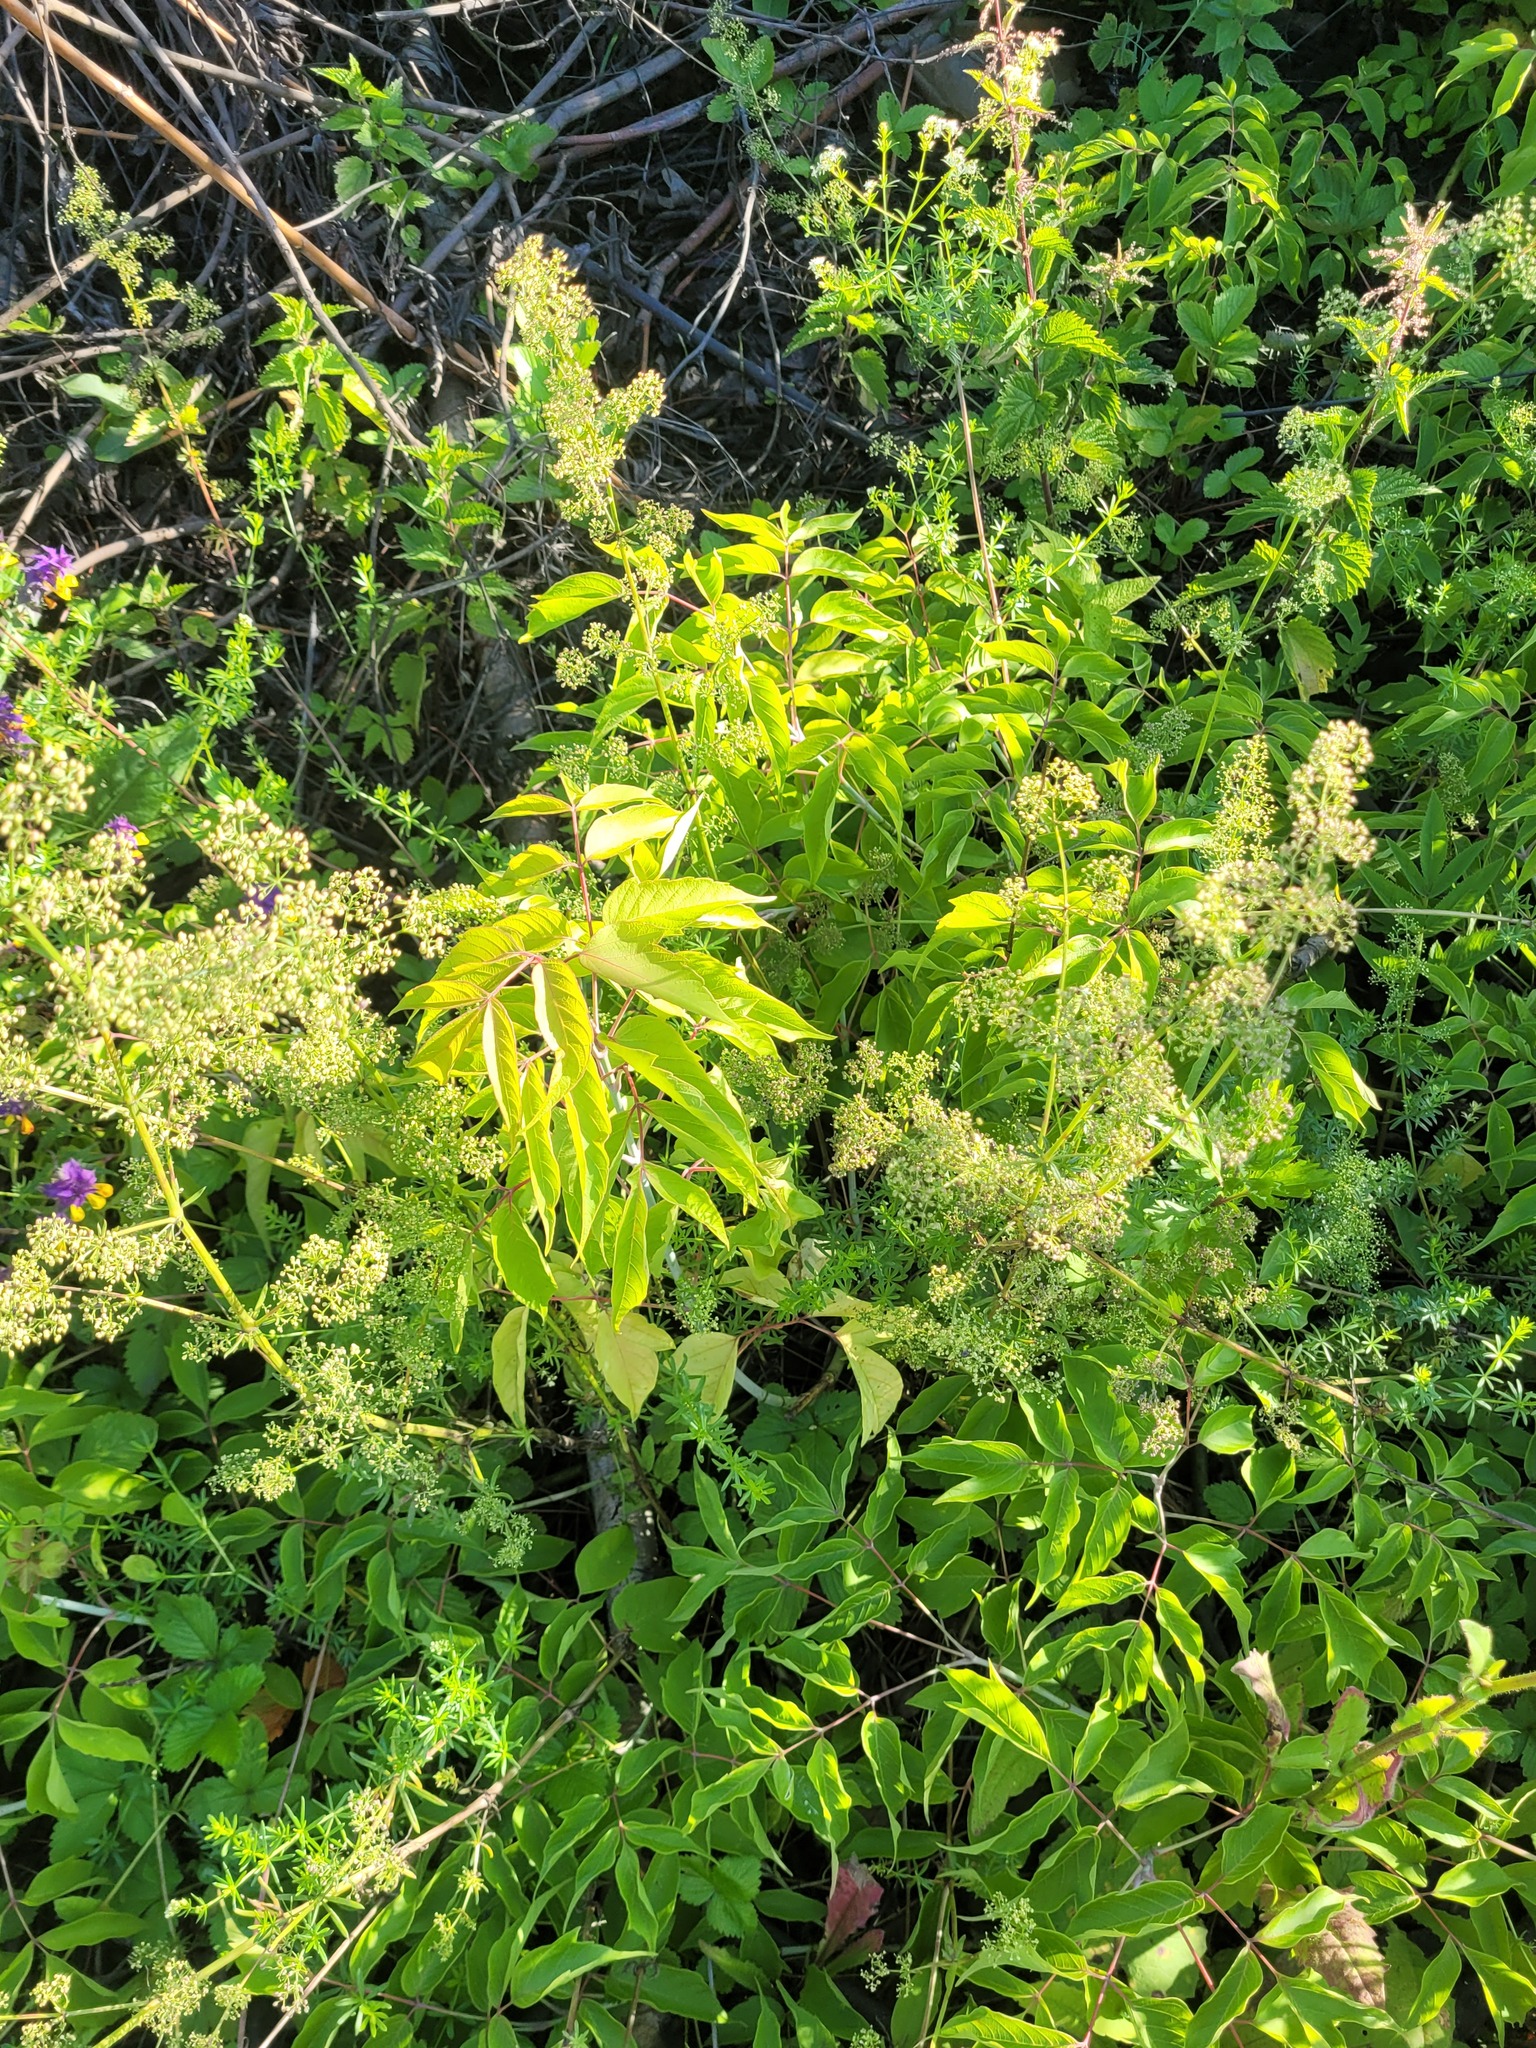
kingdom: Plantae
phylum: Tracheophyta
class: Magnoliopsida
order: Sapindales
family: Sapindaceae
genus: Acer
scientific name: Acer negundo
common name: Ashleaf maple
